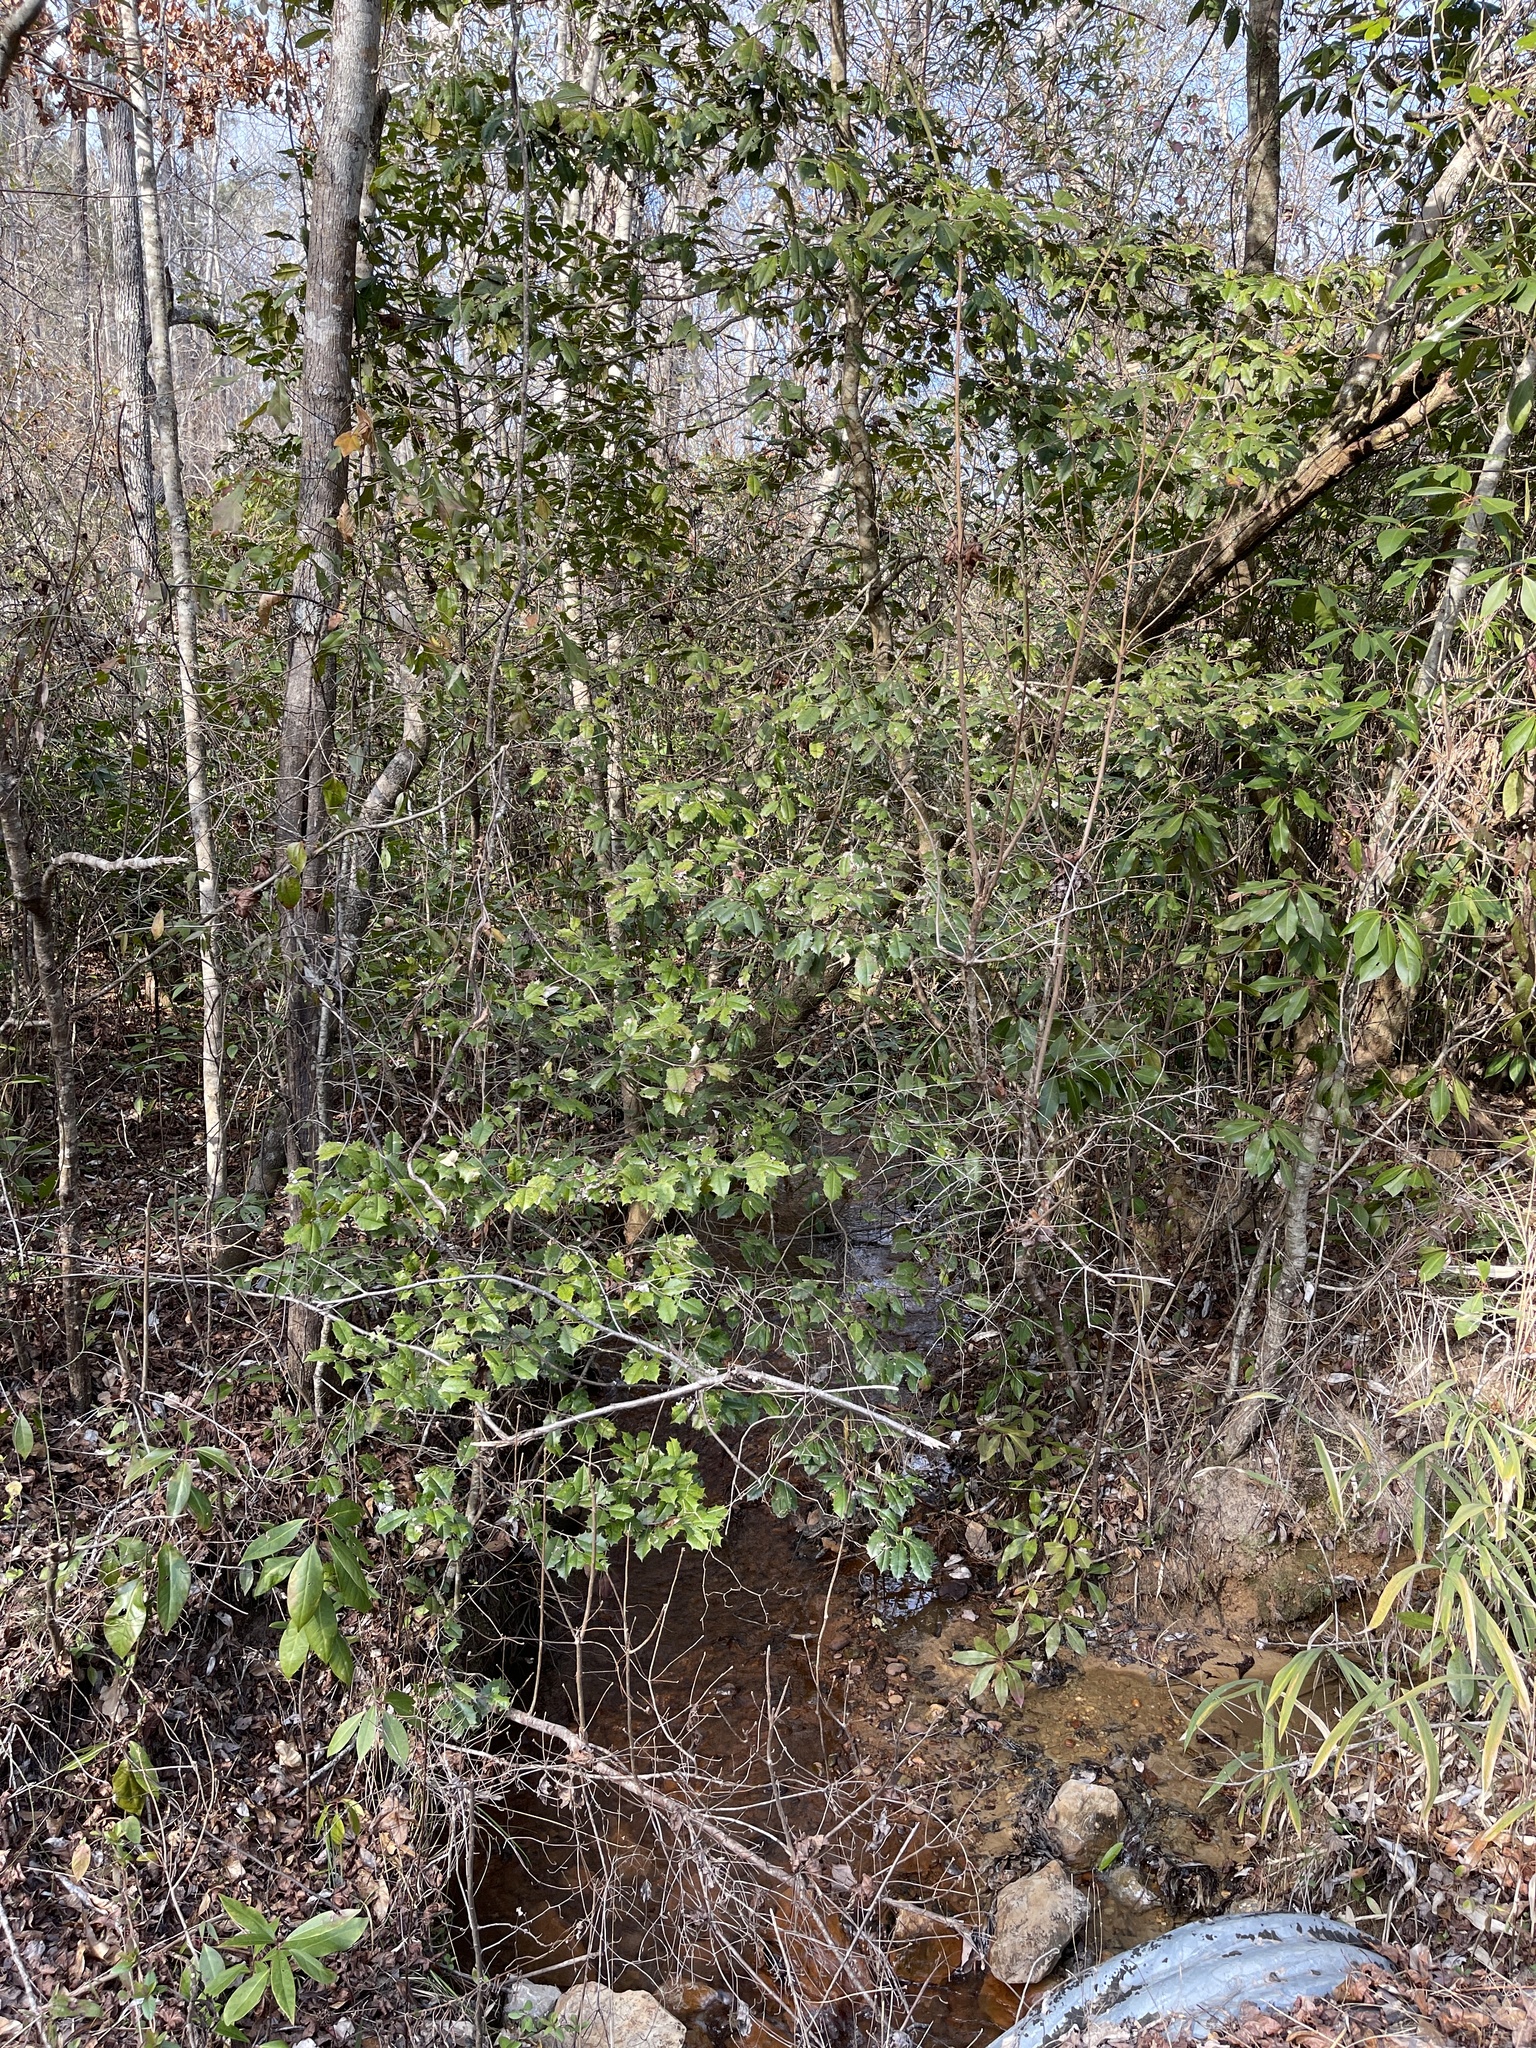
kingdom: Plantae
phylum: Tracheophyta
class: Magnoliopsida
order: Aquifoliales
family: Aquifoliaceae
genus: Ilex
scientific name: Ilex opaca
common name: American holly
